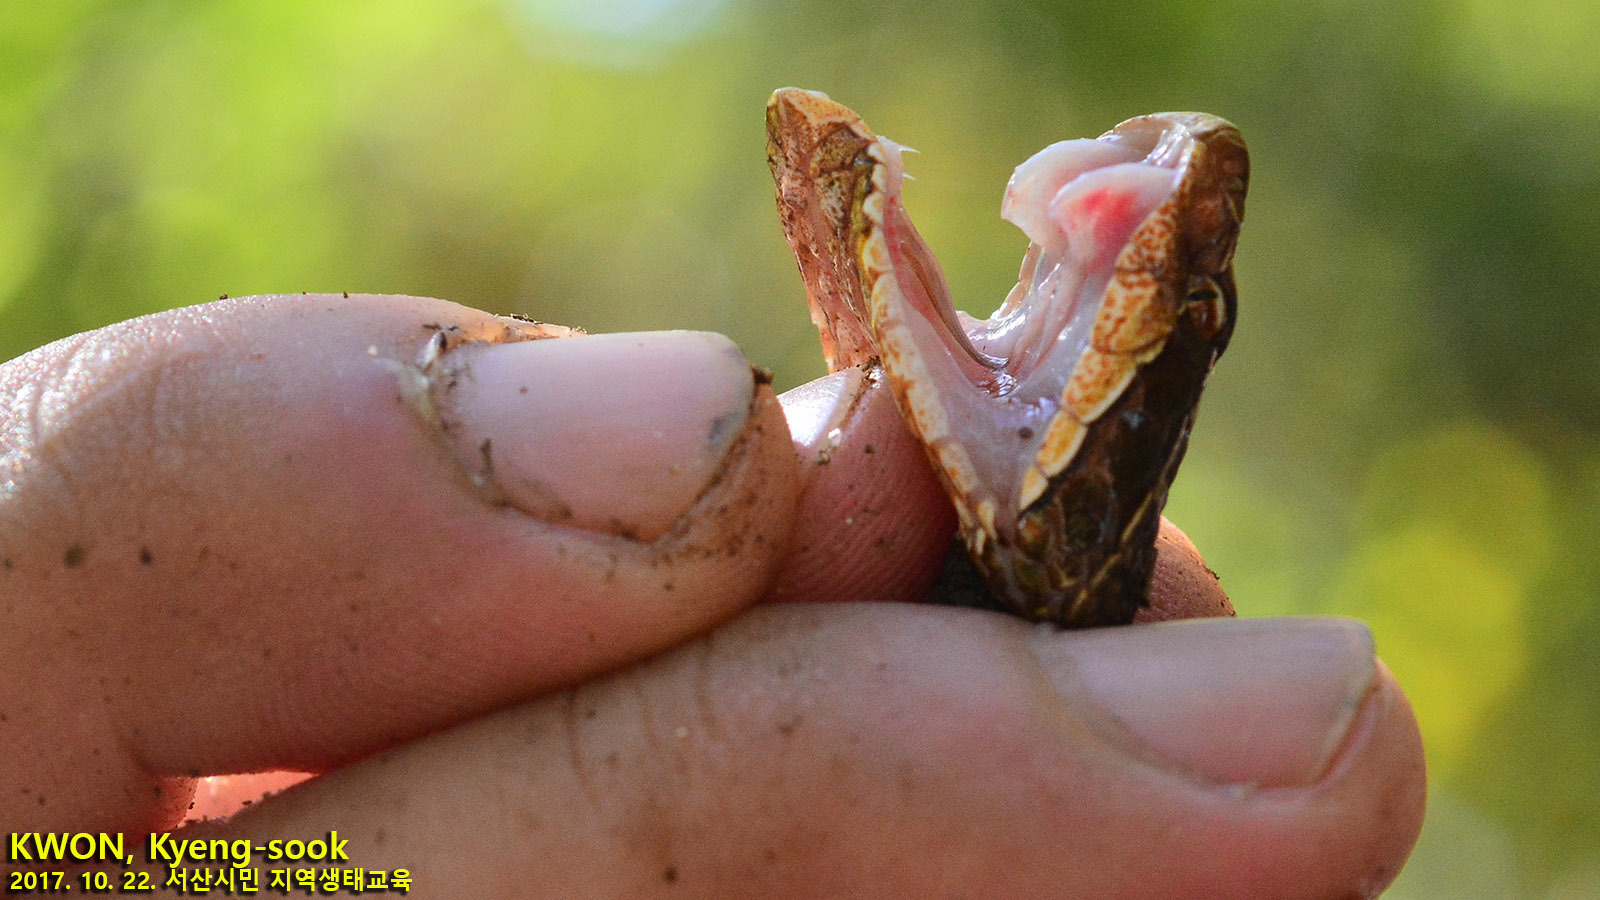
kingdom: Animalia
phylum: Chordata
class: Squamata
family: Viperidae
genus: Gloydius
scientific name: Gloydius ussuriensis
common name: Ussuri mamushi
